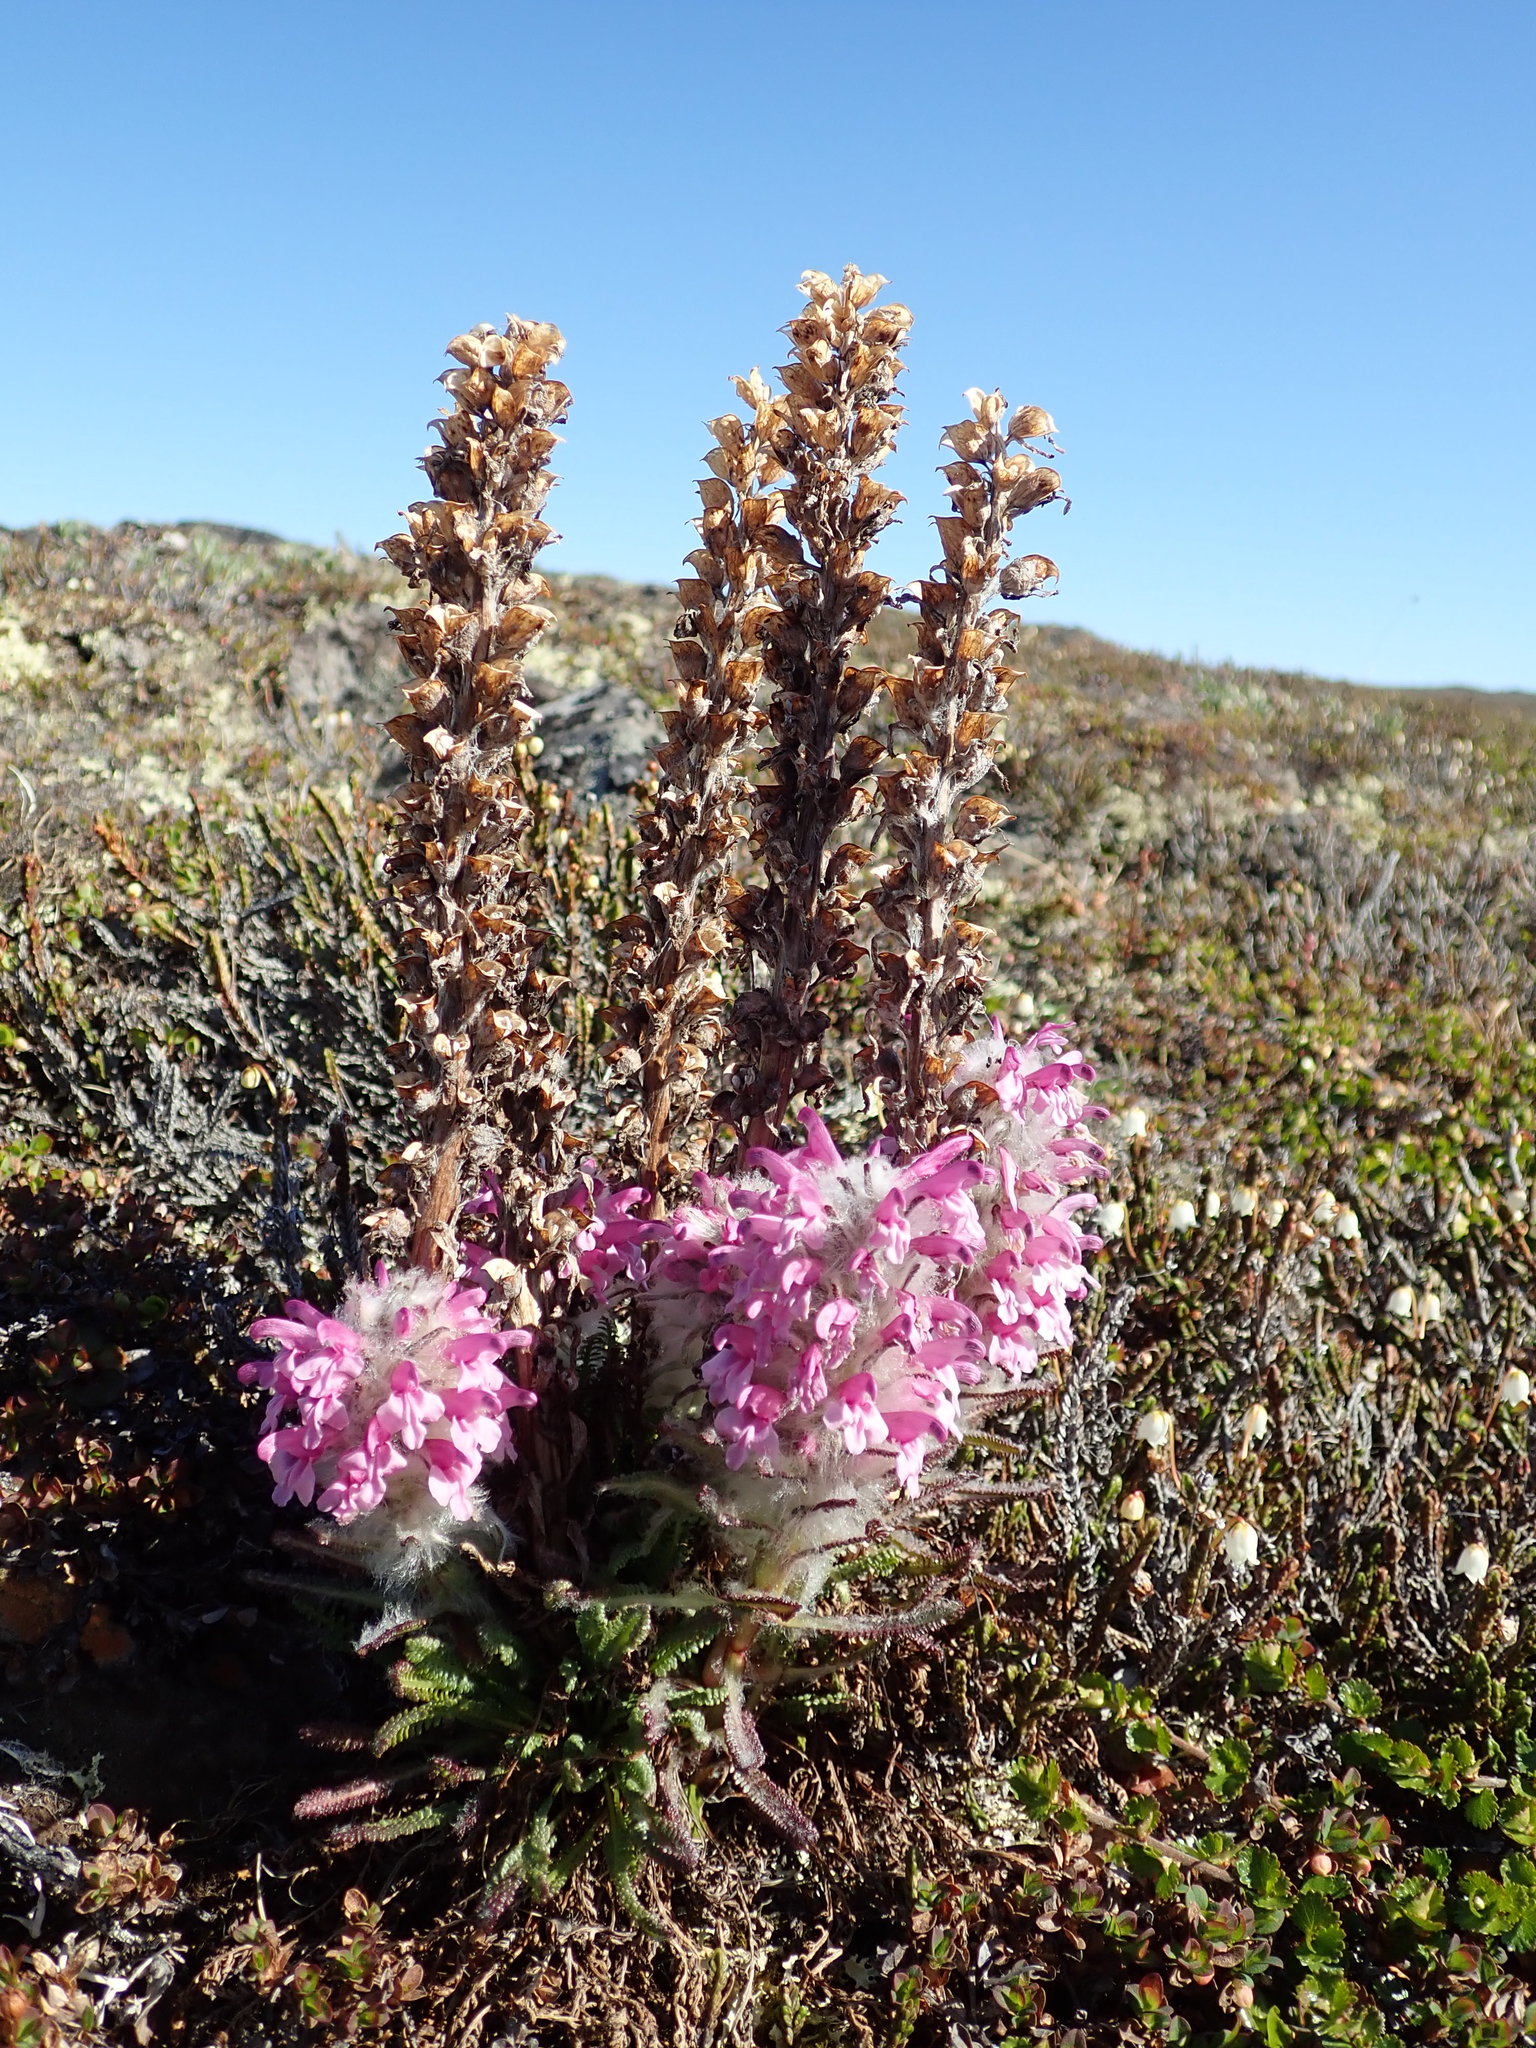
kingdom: Plantae
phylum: Tracheophyta
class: Magnoliopsida
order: Lamiales
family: Orobanchaceae
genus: Pedicularis
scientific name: Pedicularis lanata
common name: Woolly lousewort
